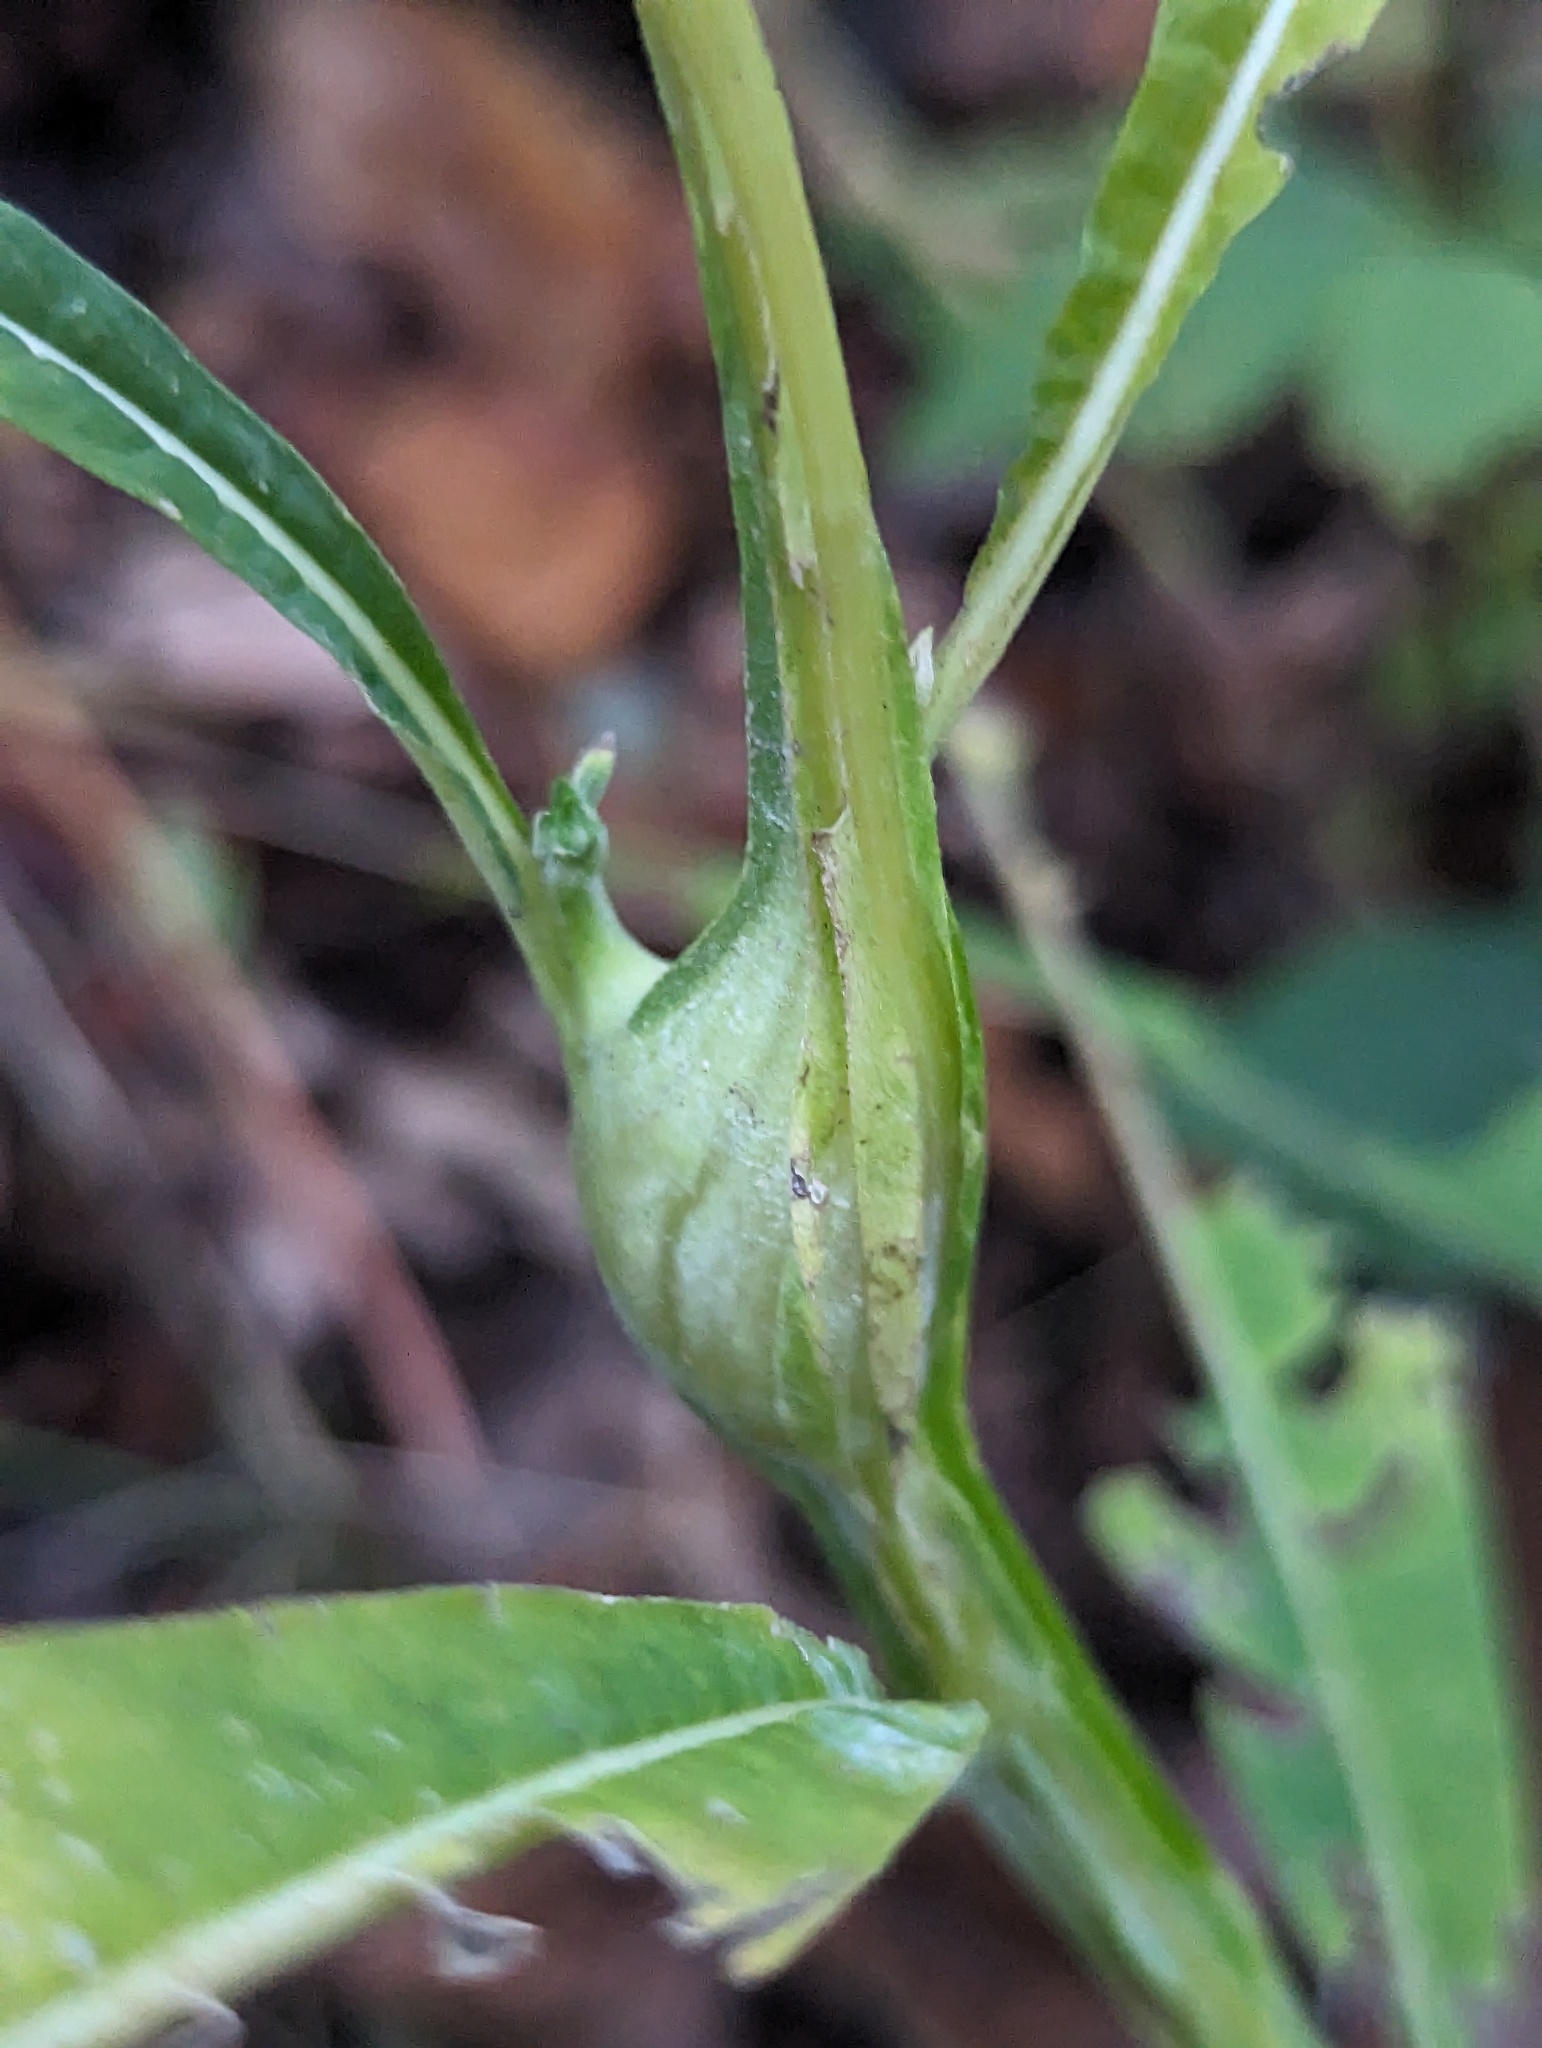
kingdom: Animalia
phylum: Arthropoda
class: Insecta
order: Diptera
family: Cecidomyiidae
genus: Neolasioptera
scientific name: Neolasioptera verbesinae
